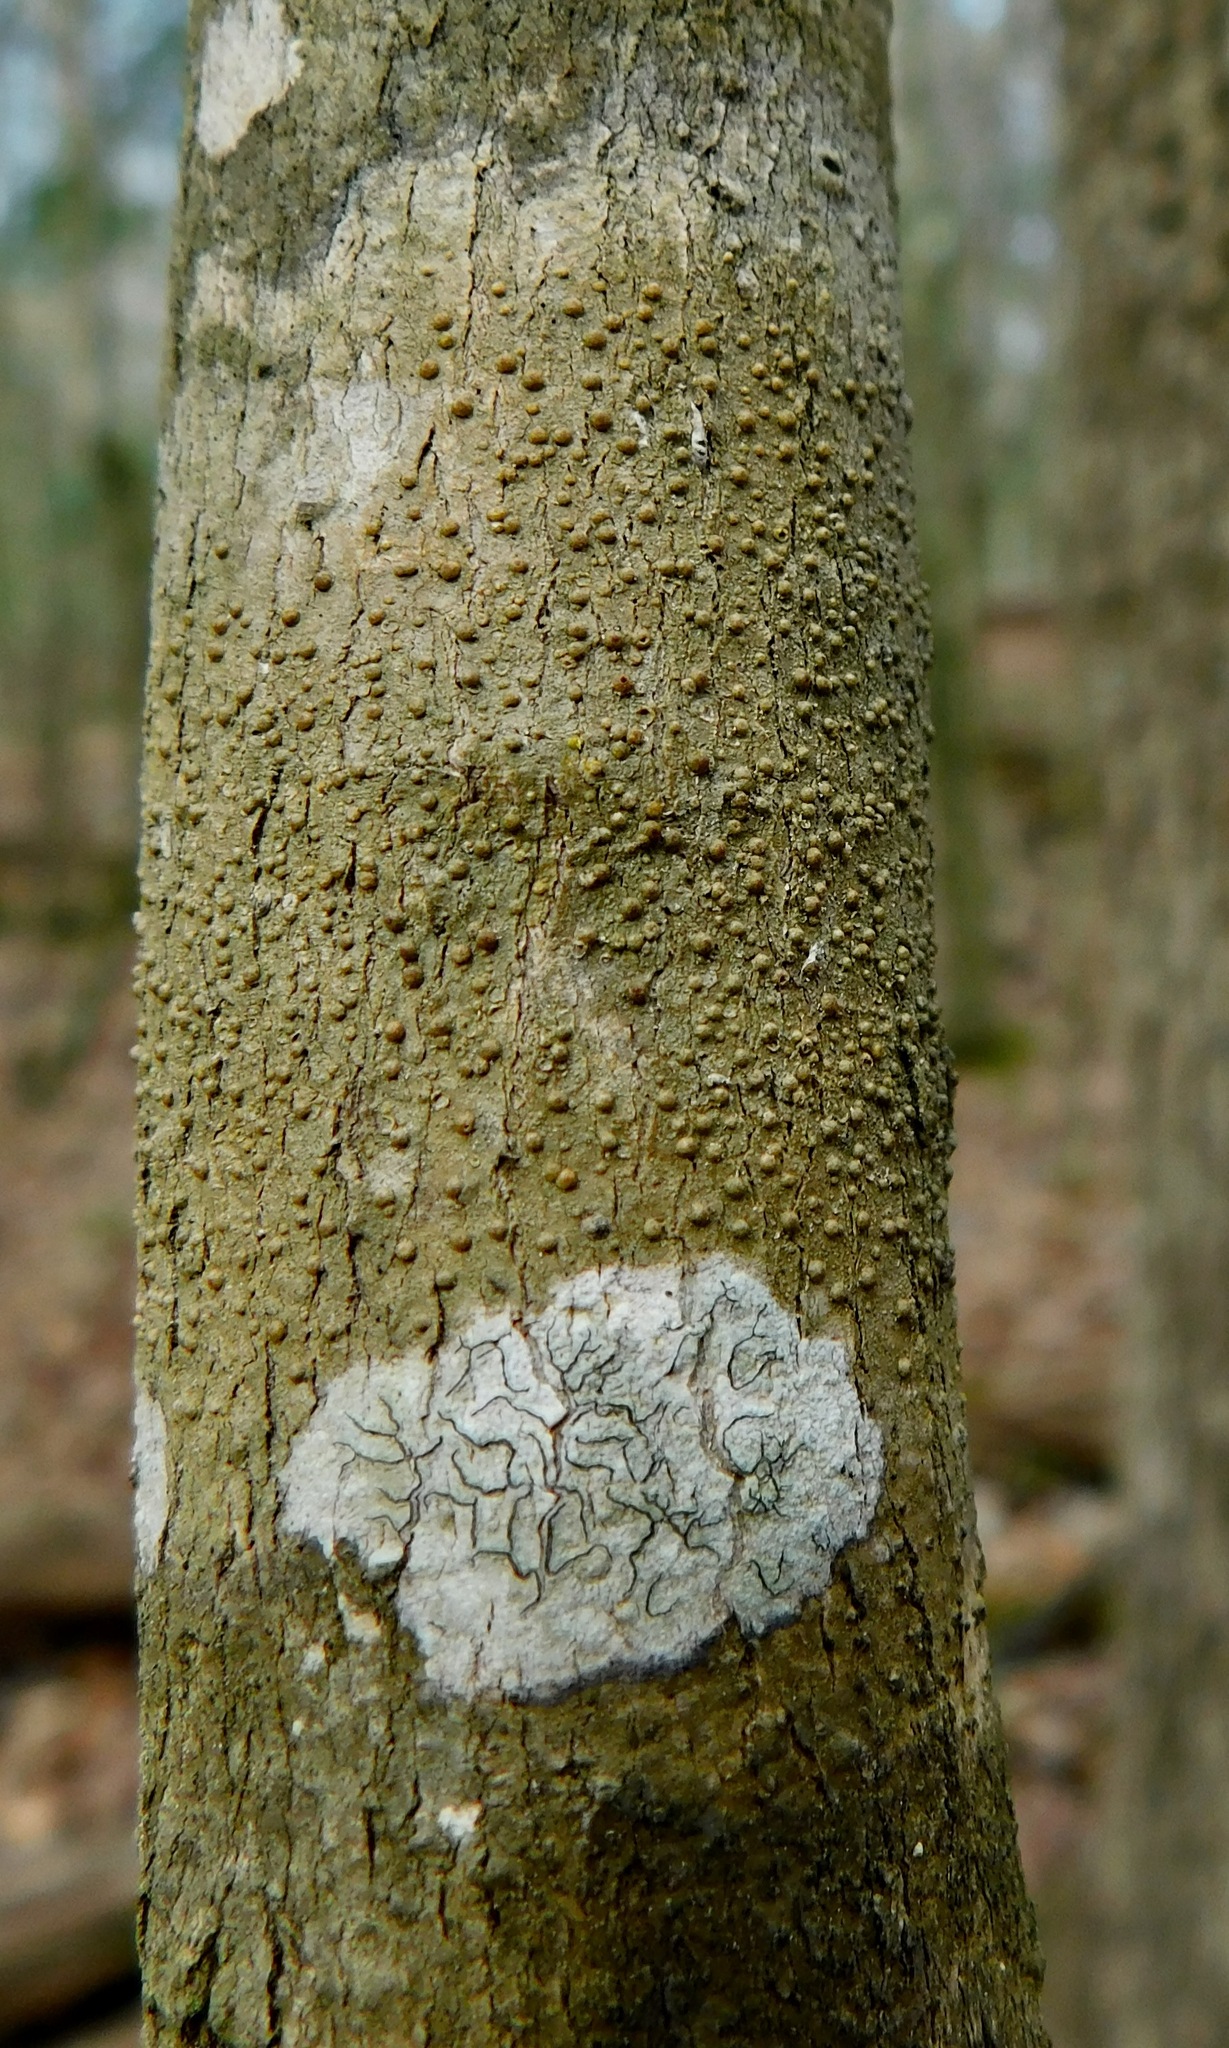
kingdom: Fungi
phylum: Ascomycota
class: Lecanoromycetes
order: Pertusariales
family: Pertusariaceae
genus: Porina
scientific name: Porina heterospora
